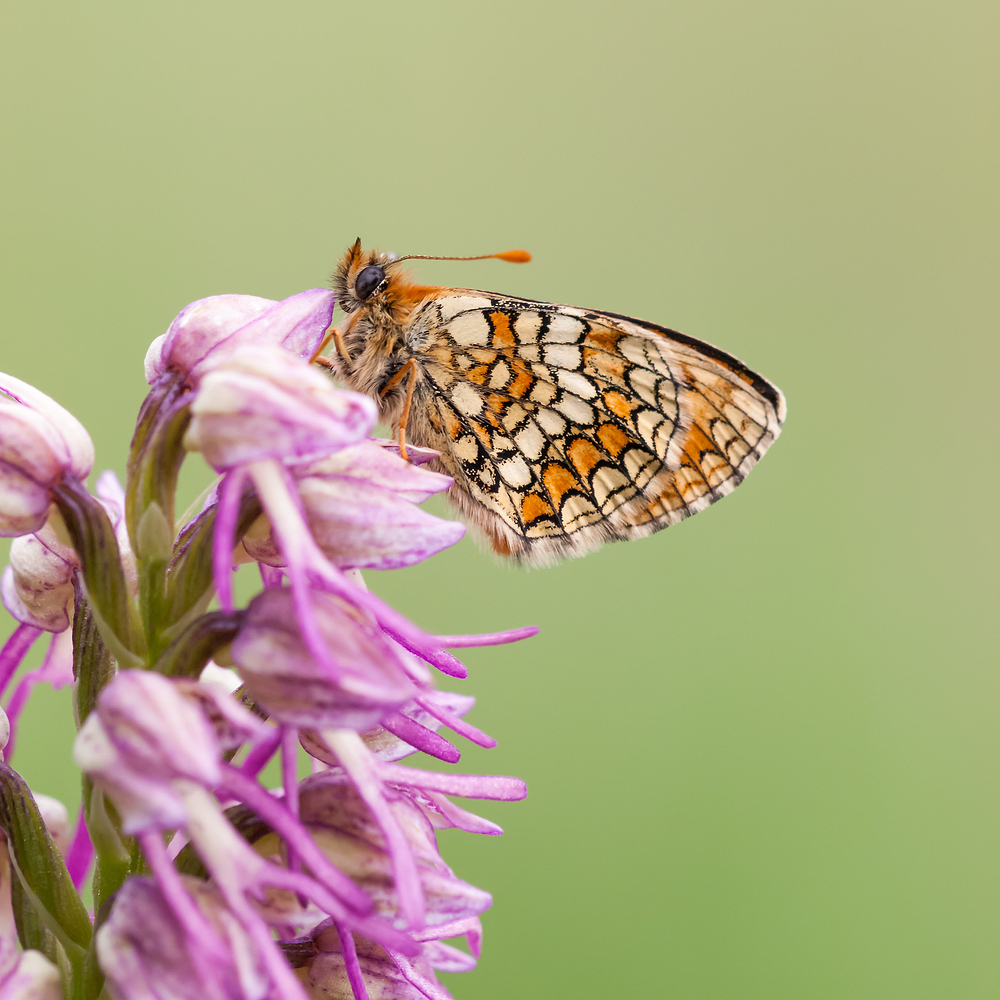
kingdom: Animalia
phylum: Arthropoda
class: Insecta
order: Lepidoptera
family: Nymphalidae
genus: Mellicta
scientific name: Mellicta parthenoides
